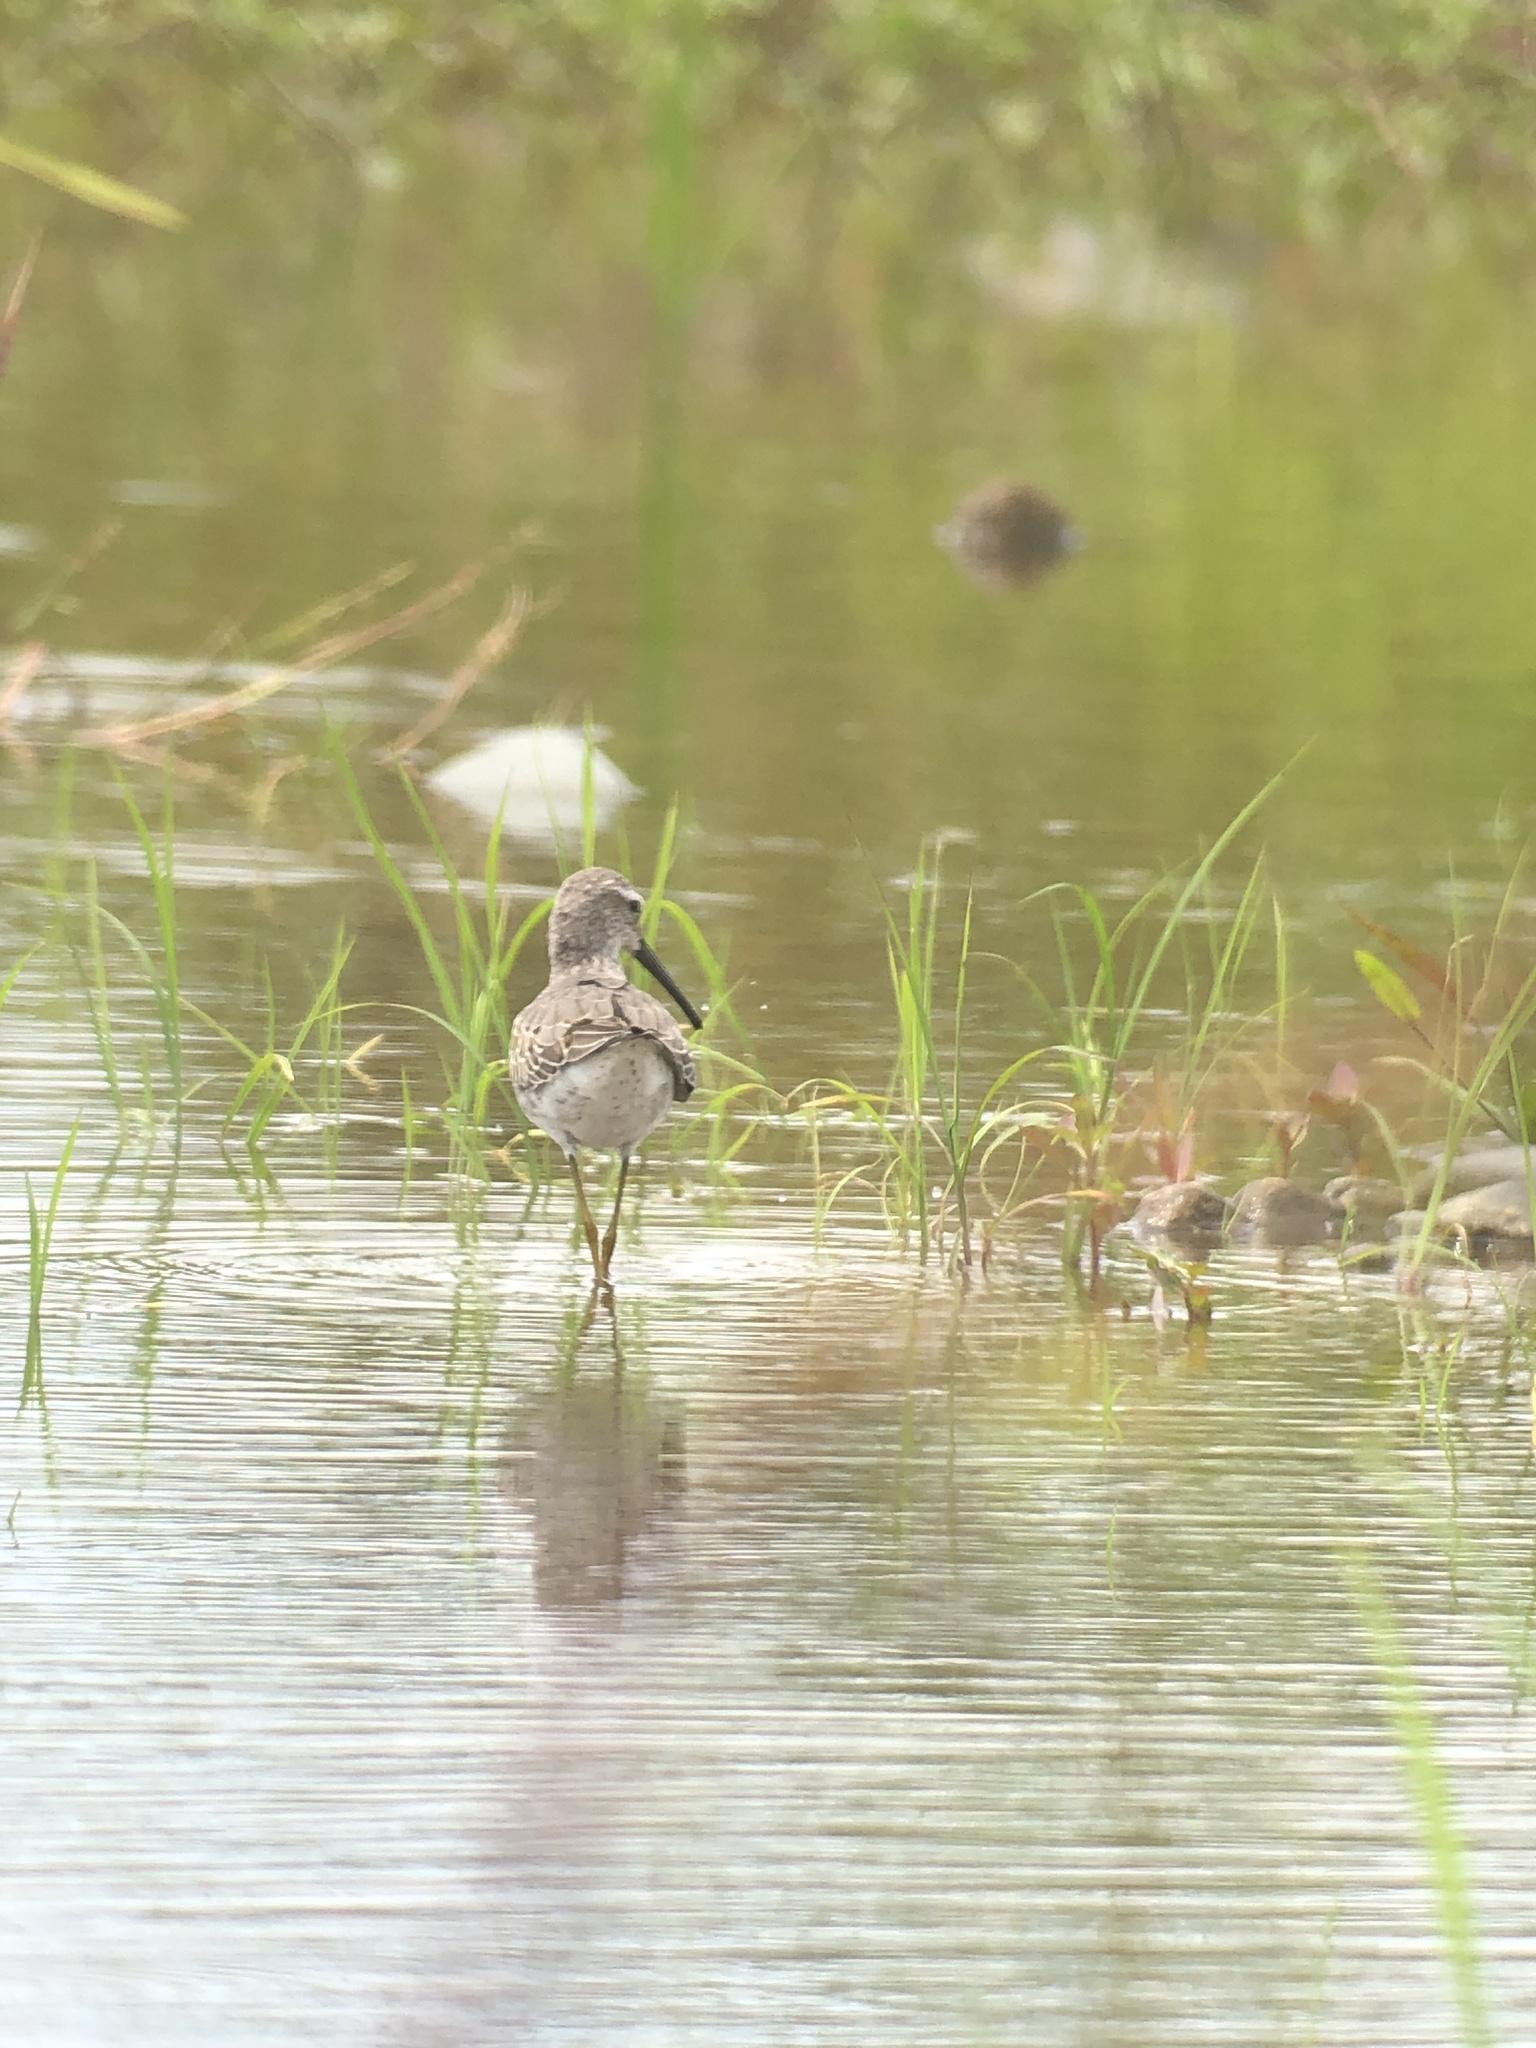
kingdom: Animalia
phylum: Chordata
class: Aves
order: Charadriiformes
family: Scolopacidae
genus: Calidris
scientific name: Calidris himantopus
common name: Stilt sandpiper
